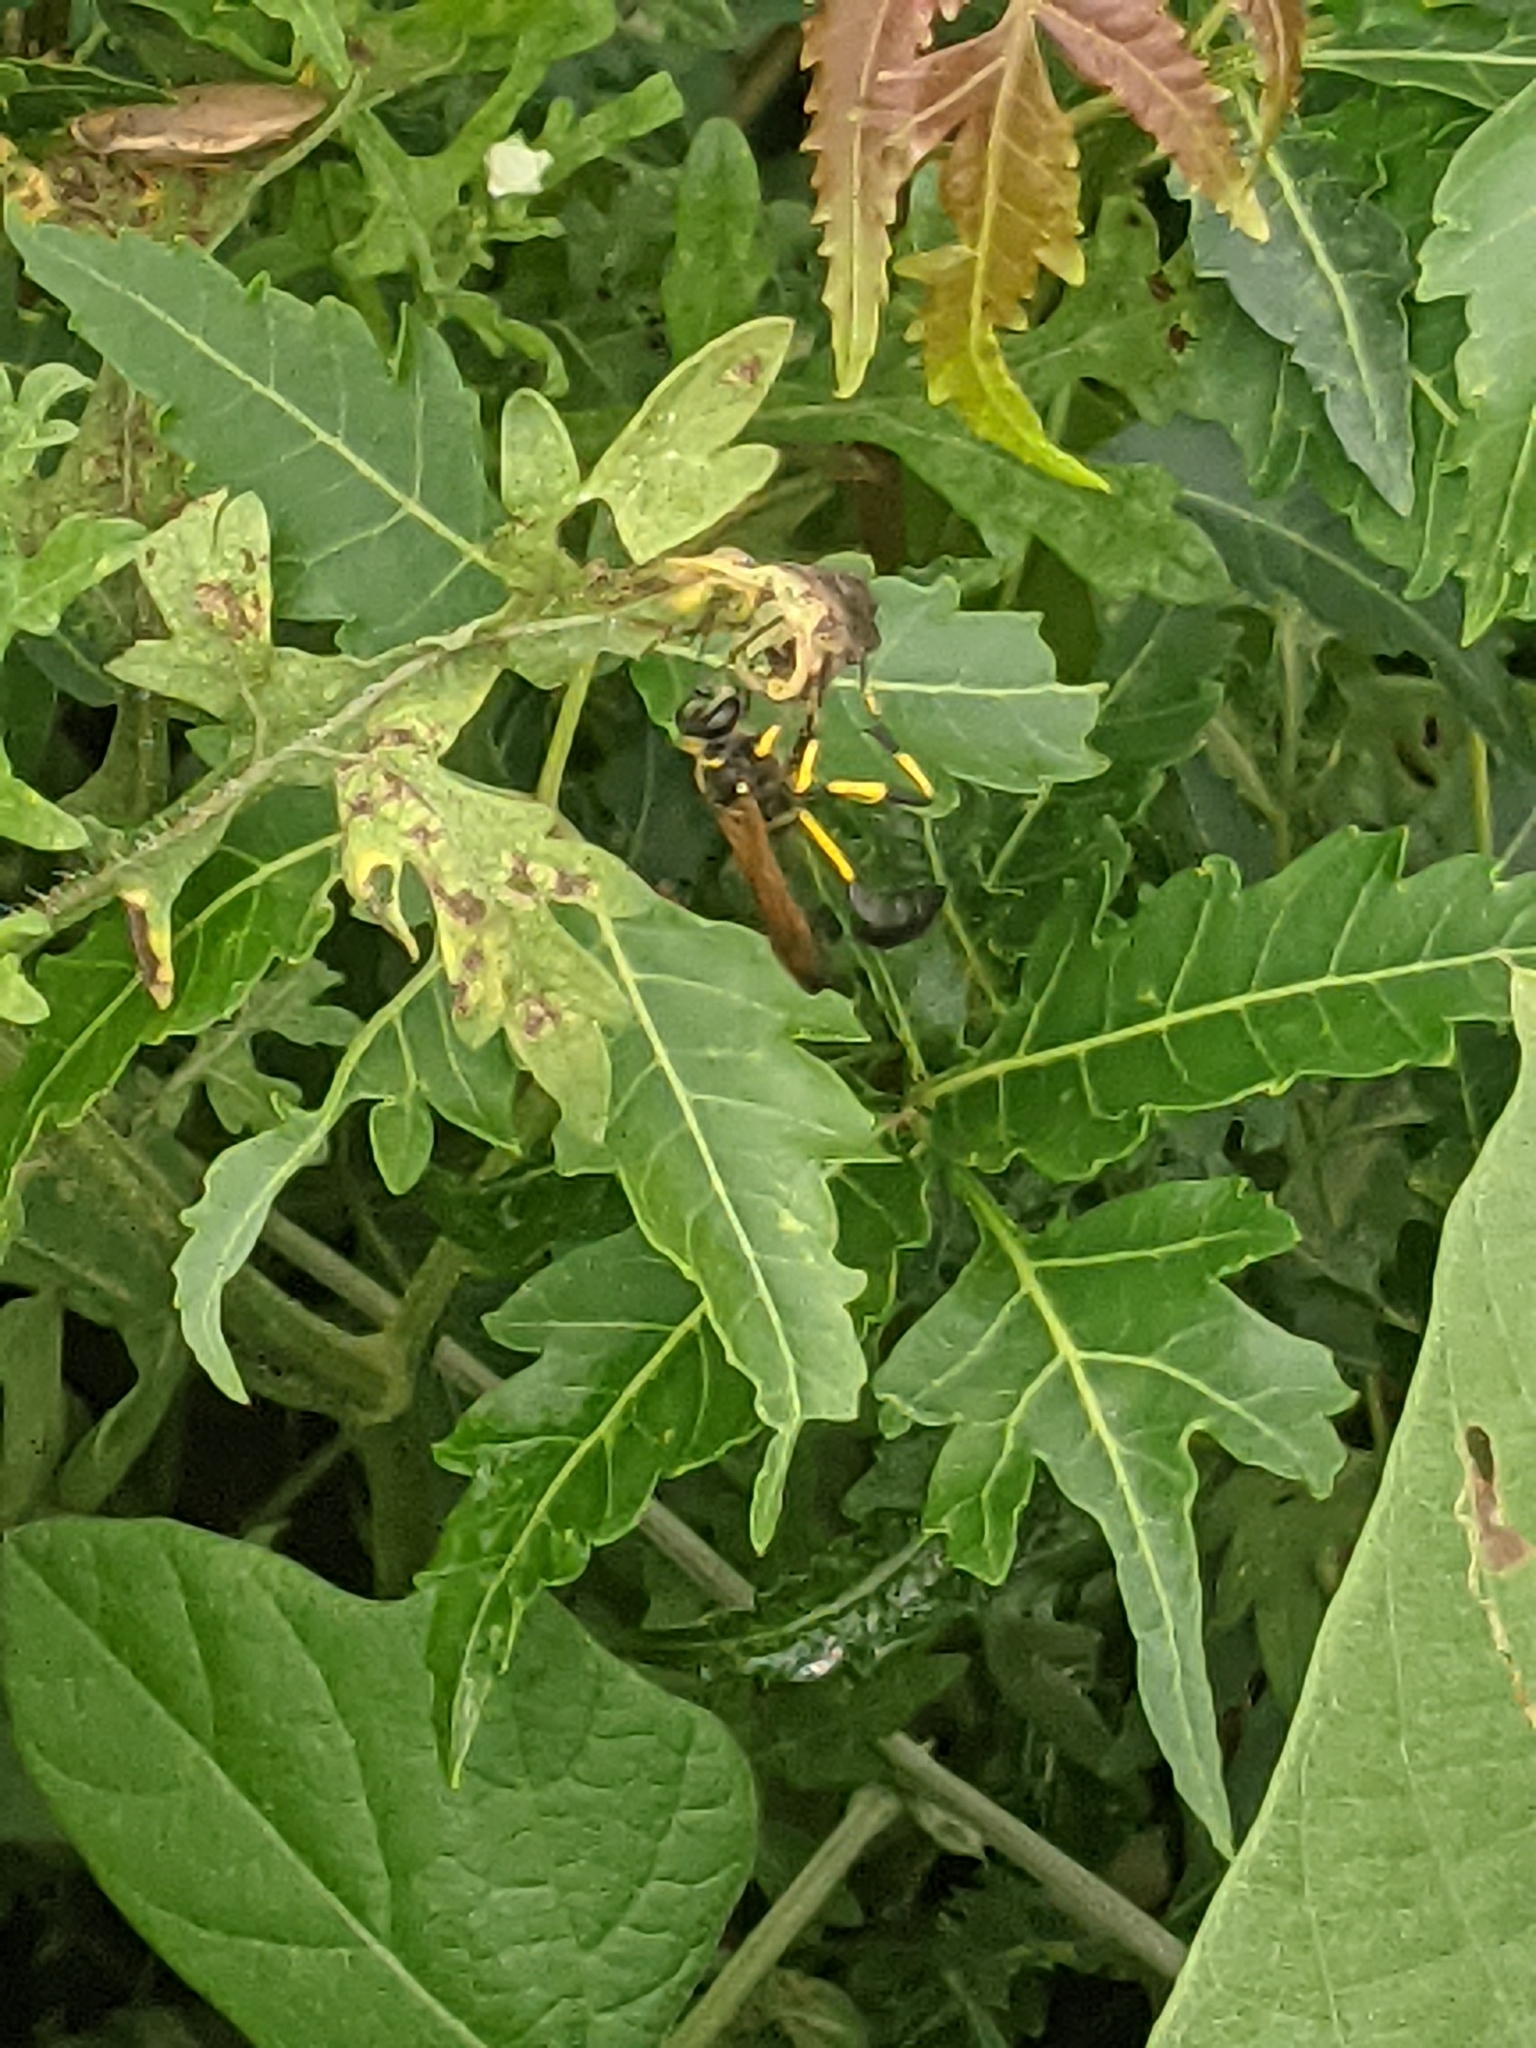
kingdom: Animalia
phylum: Arthropoda
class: Insecta
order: Hymenoptera
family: Sphecidae
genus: Sceliphron
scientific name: Sceliphron madraspatanum
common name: Mud dauber
